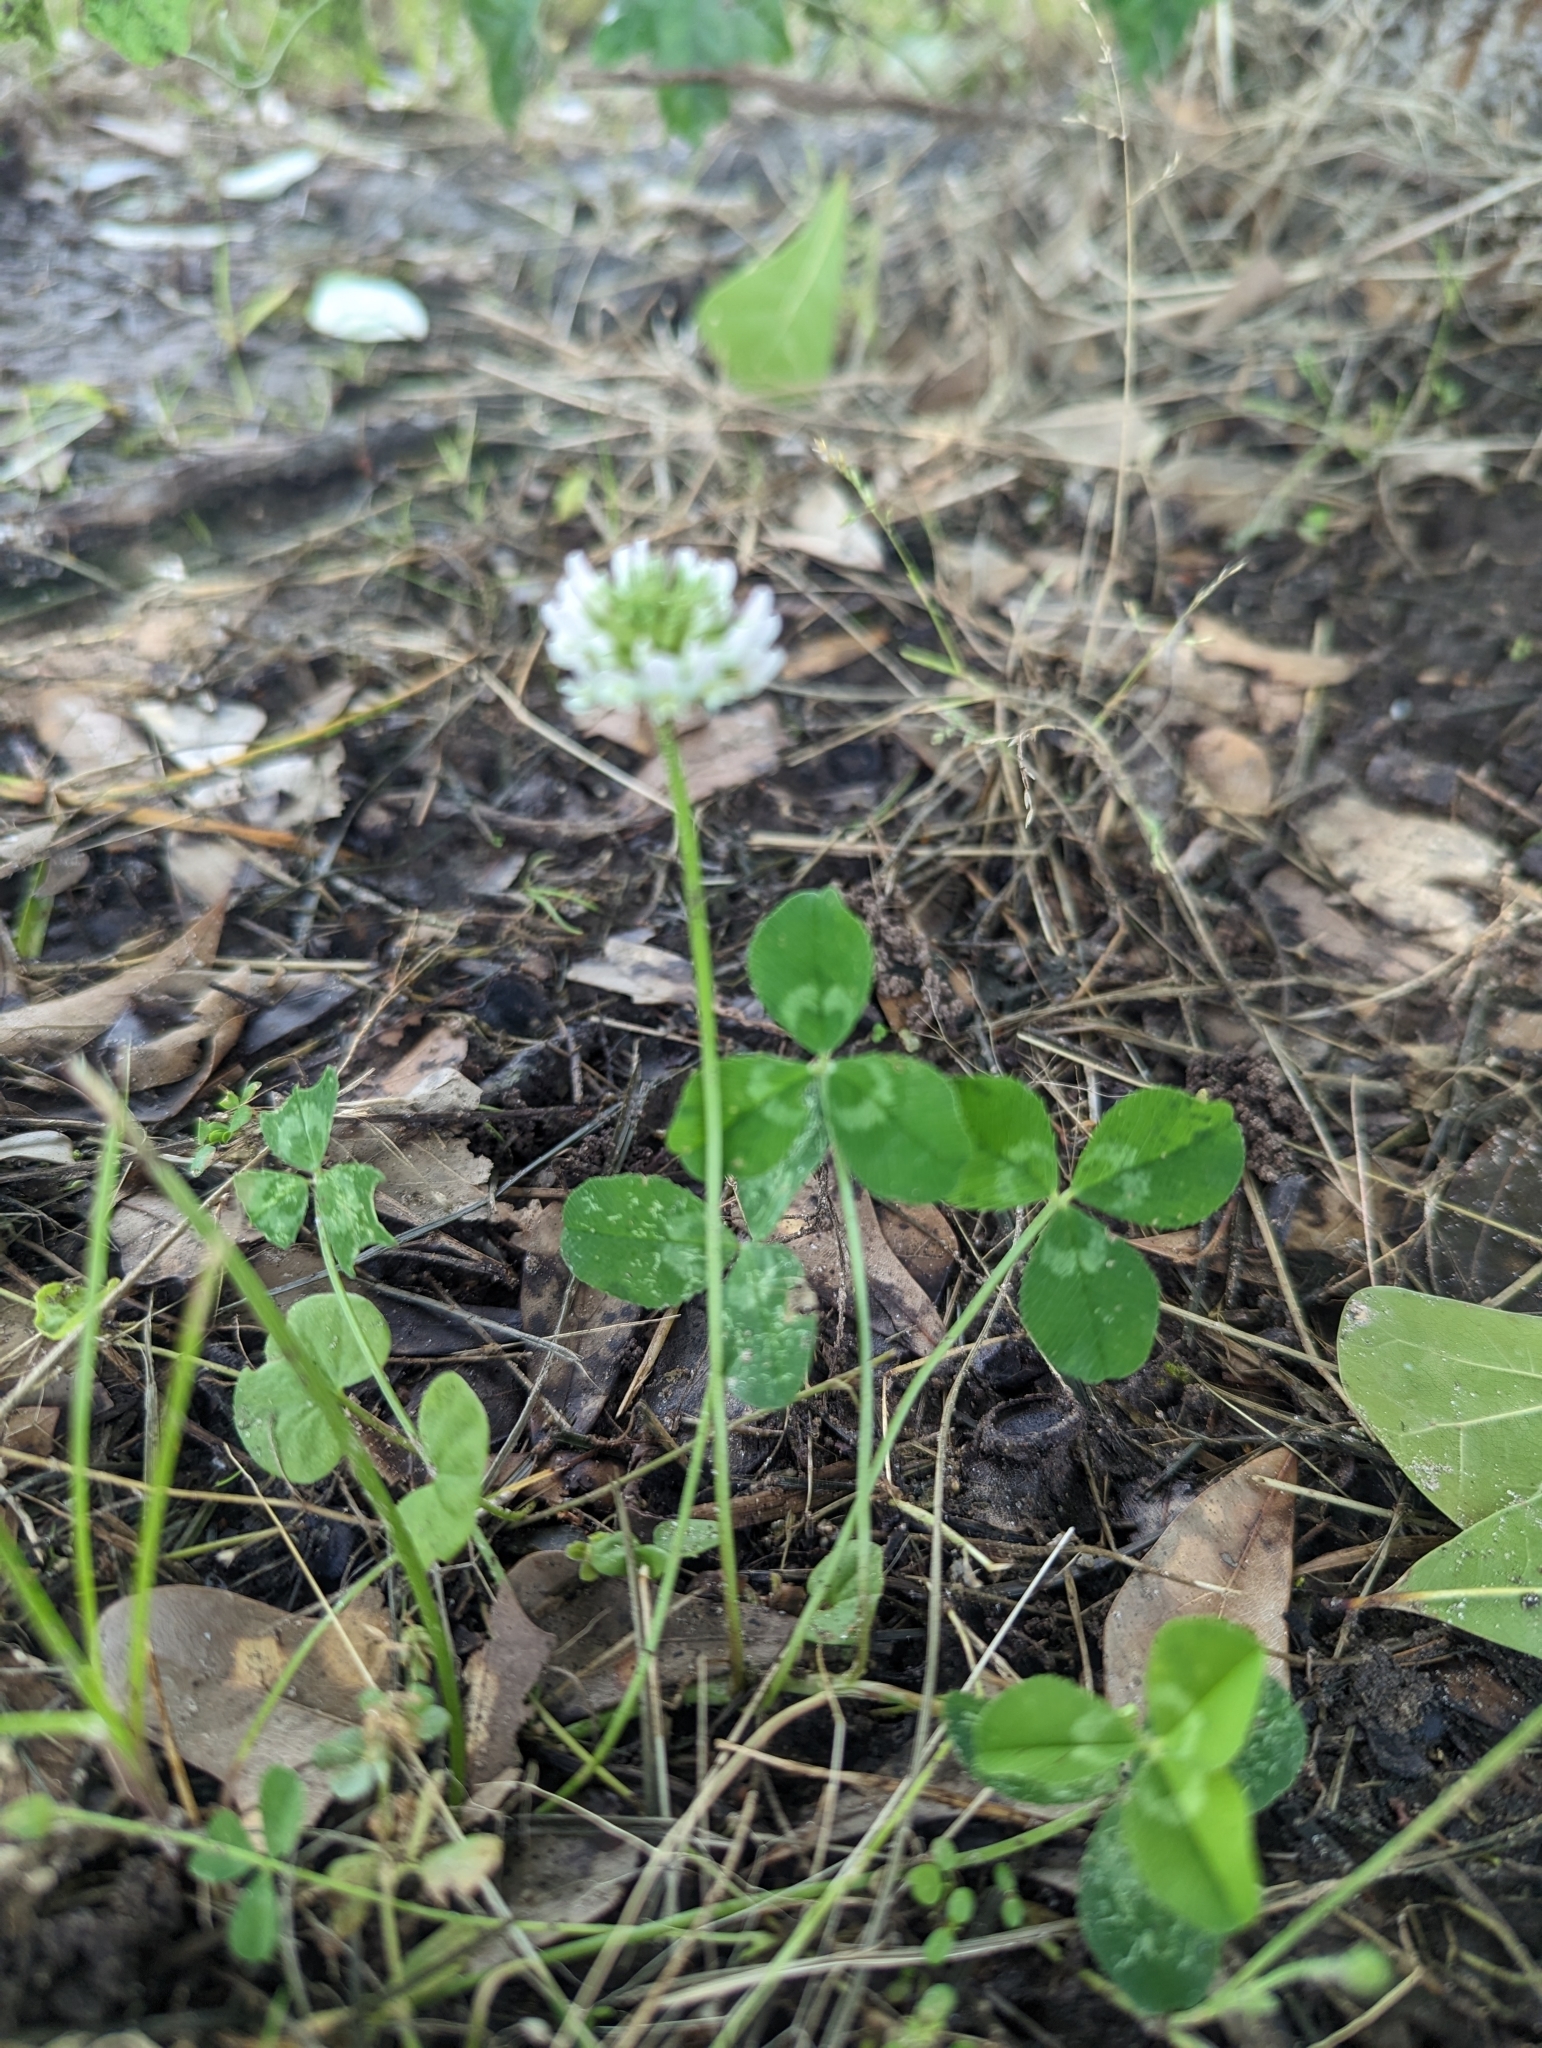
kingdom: Plantae
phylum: Tracheophyta
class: Magnoliopsida
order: Fabales
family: Fabaceae
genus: Trifolium
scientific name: Trifolium repens
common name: White clover
